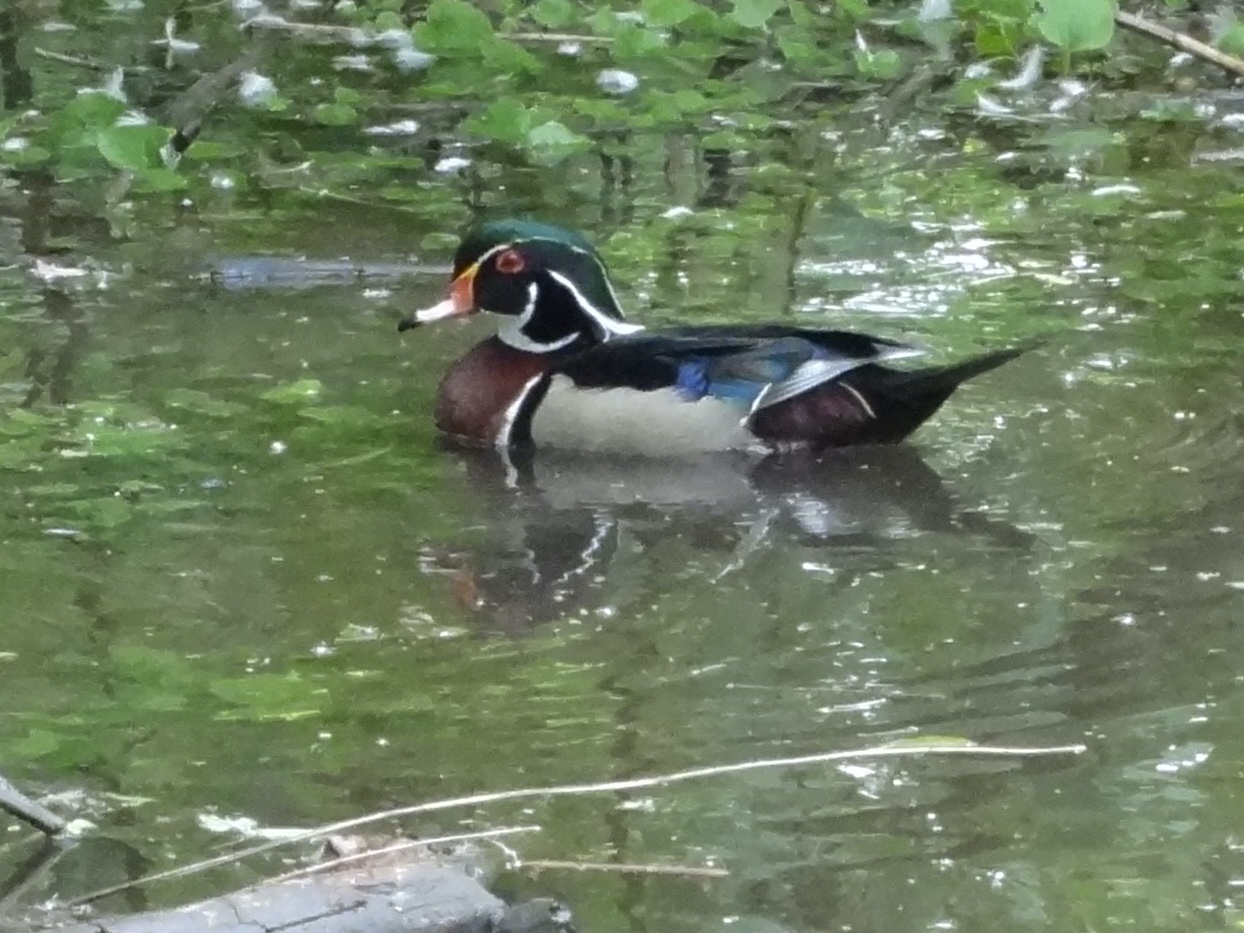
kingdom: Animalia
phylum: Chordata
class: Aves
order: Anseriformes
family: Anatidae
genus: Aix
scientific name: Aix sponsa
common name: Wood duck
